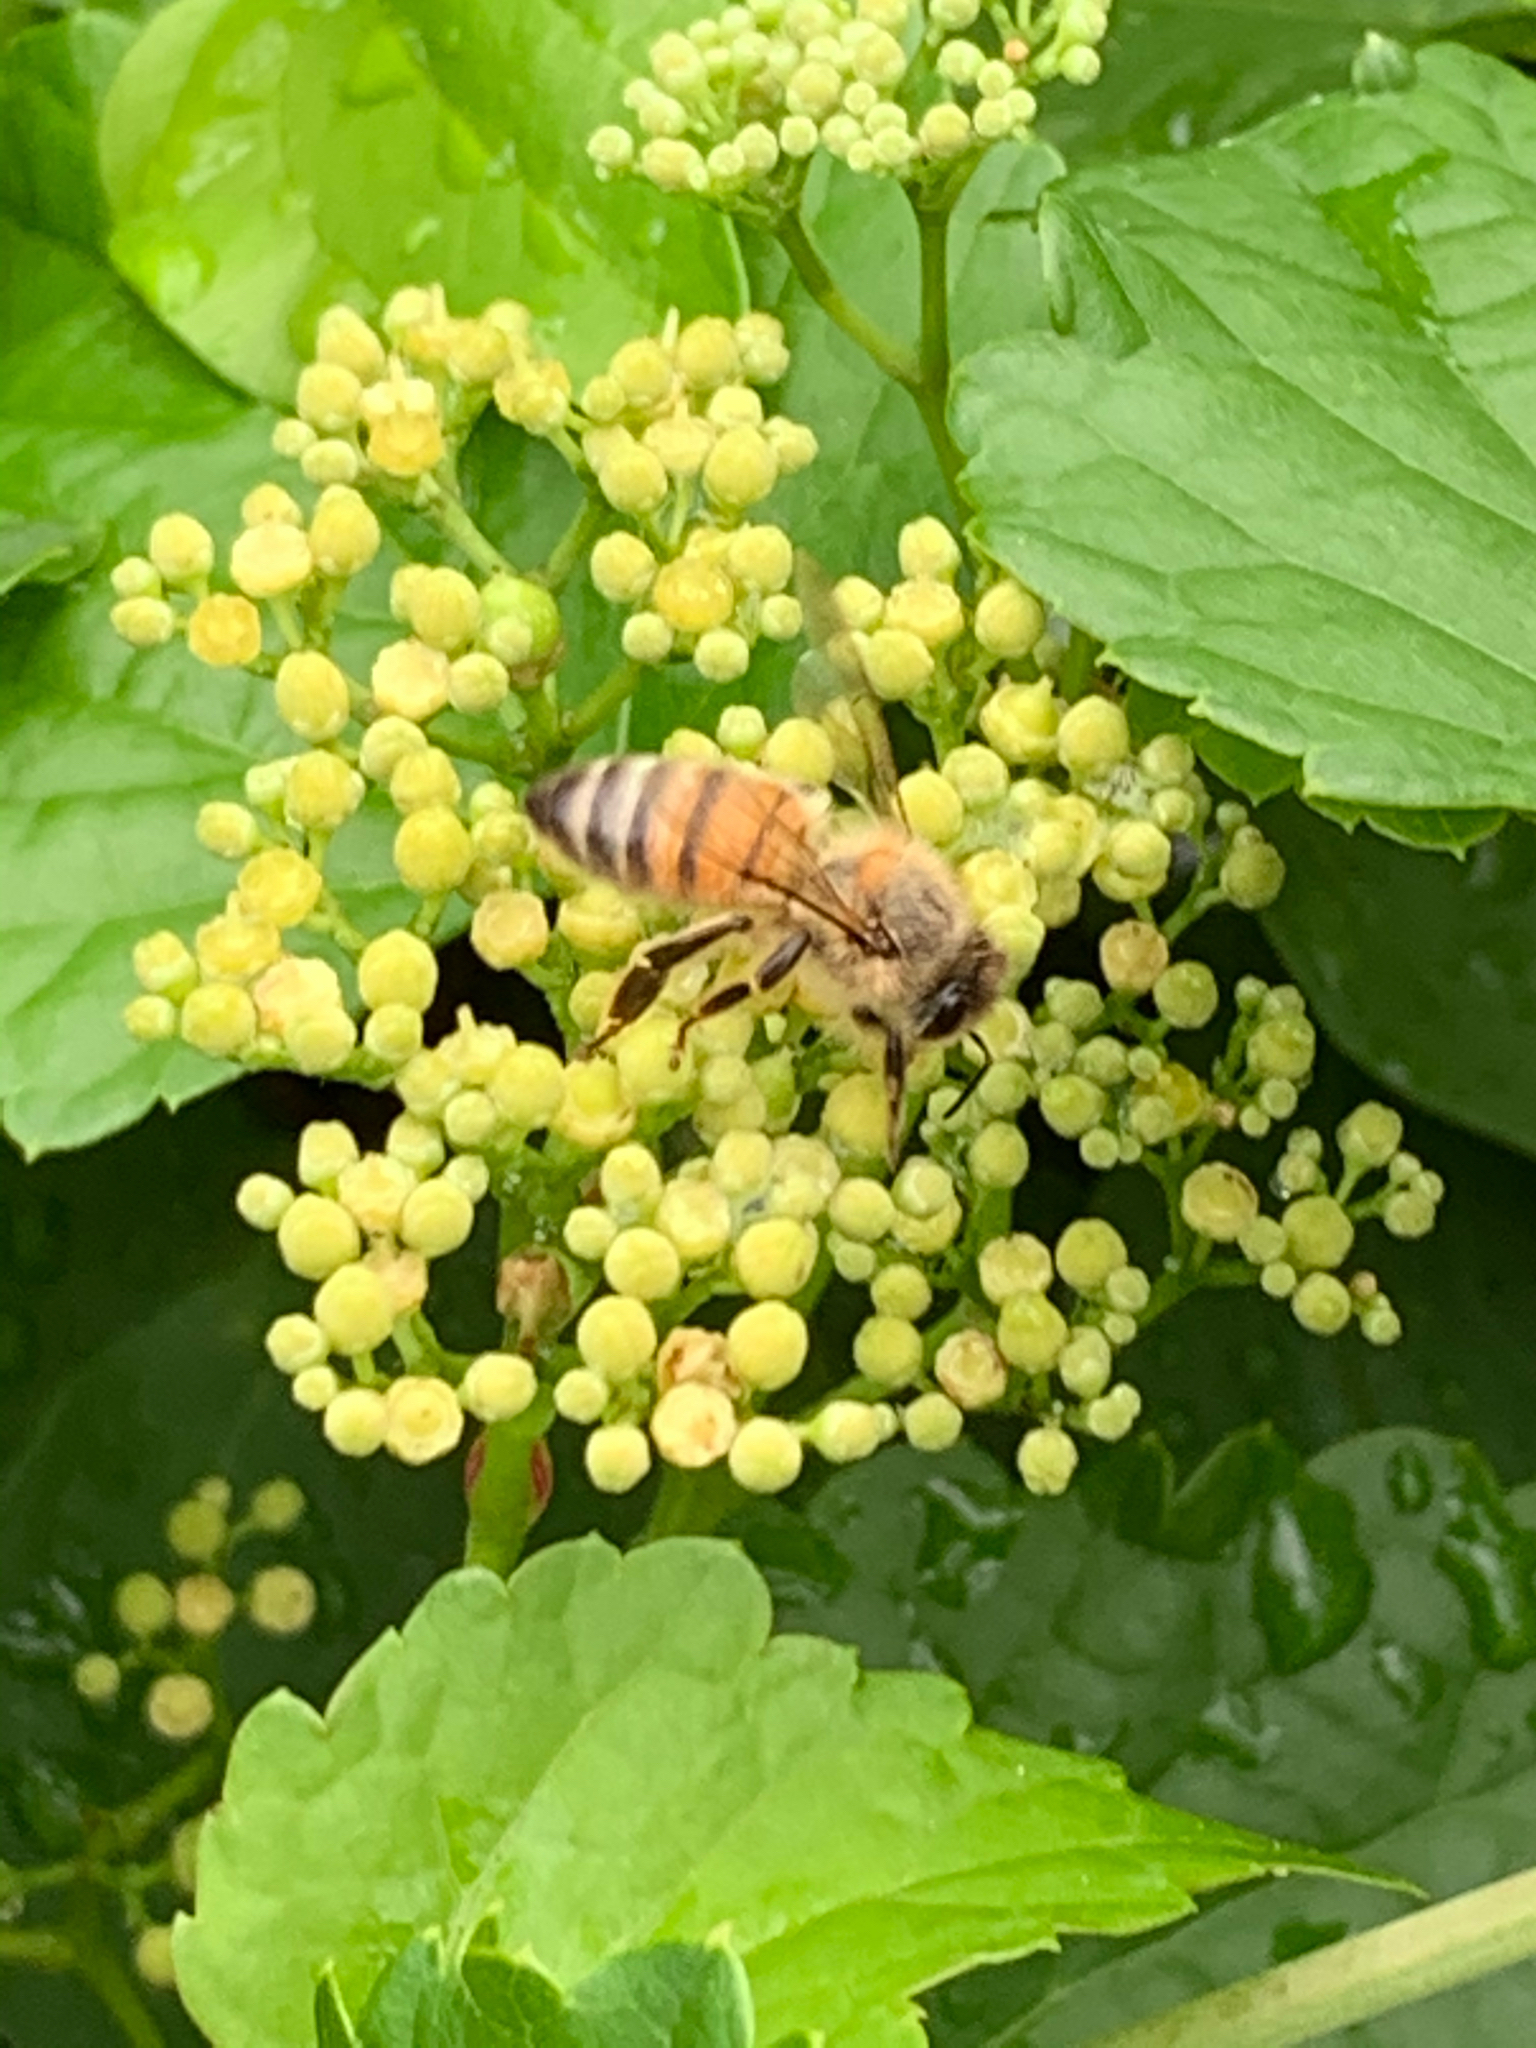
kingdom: Animalia
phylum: Arthropoda
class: Insecta
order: Hymenoptera
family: Apidae
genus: Apis
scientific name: Apis mellifera
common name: Honey bee
